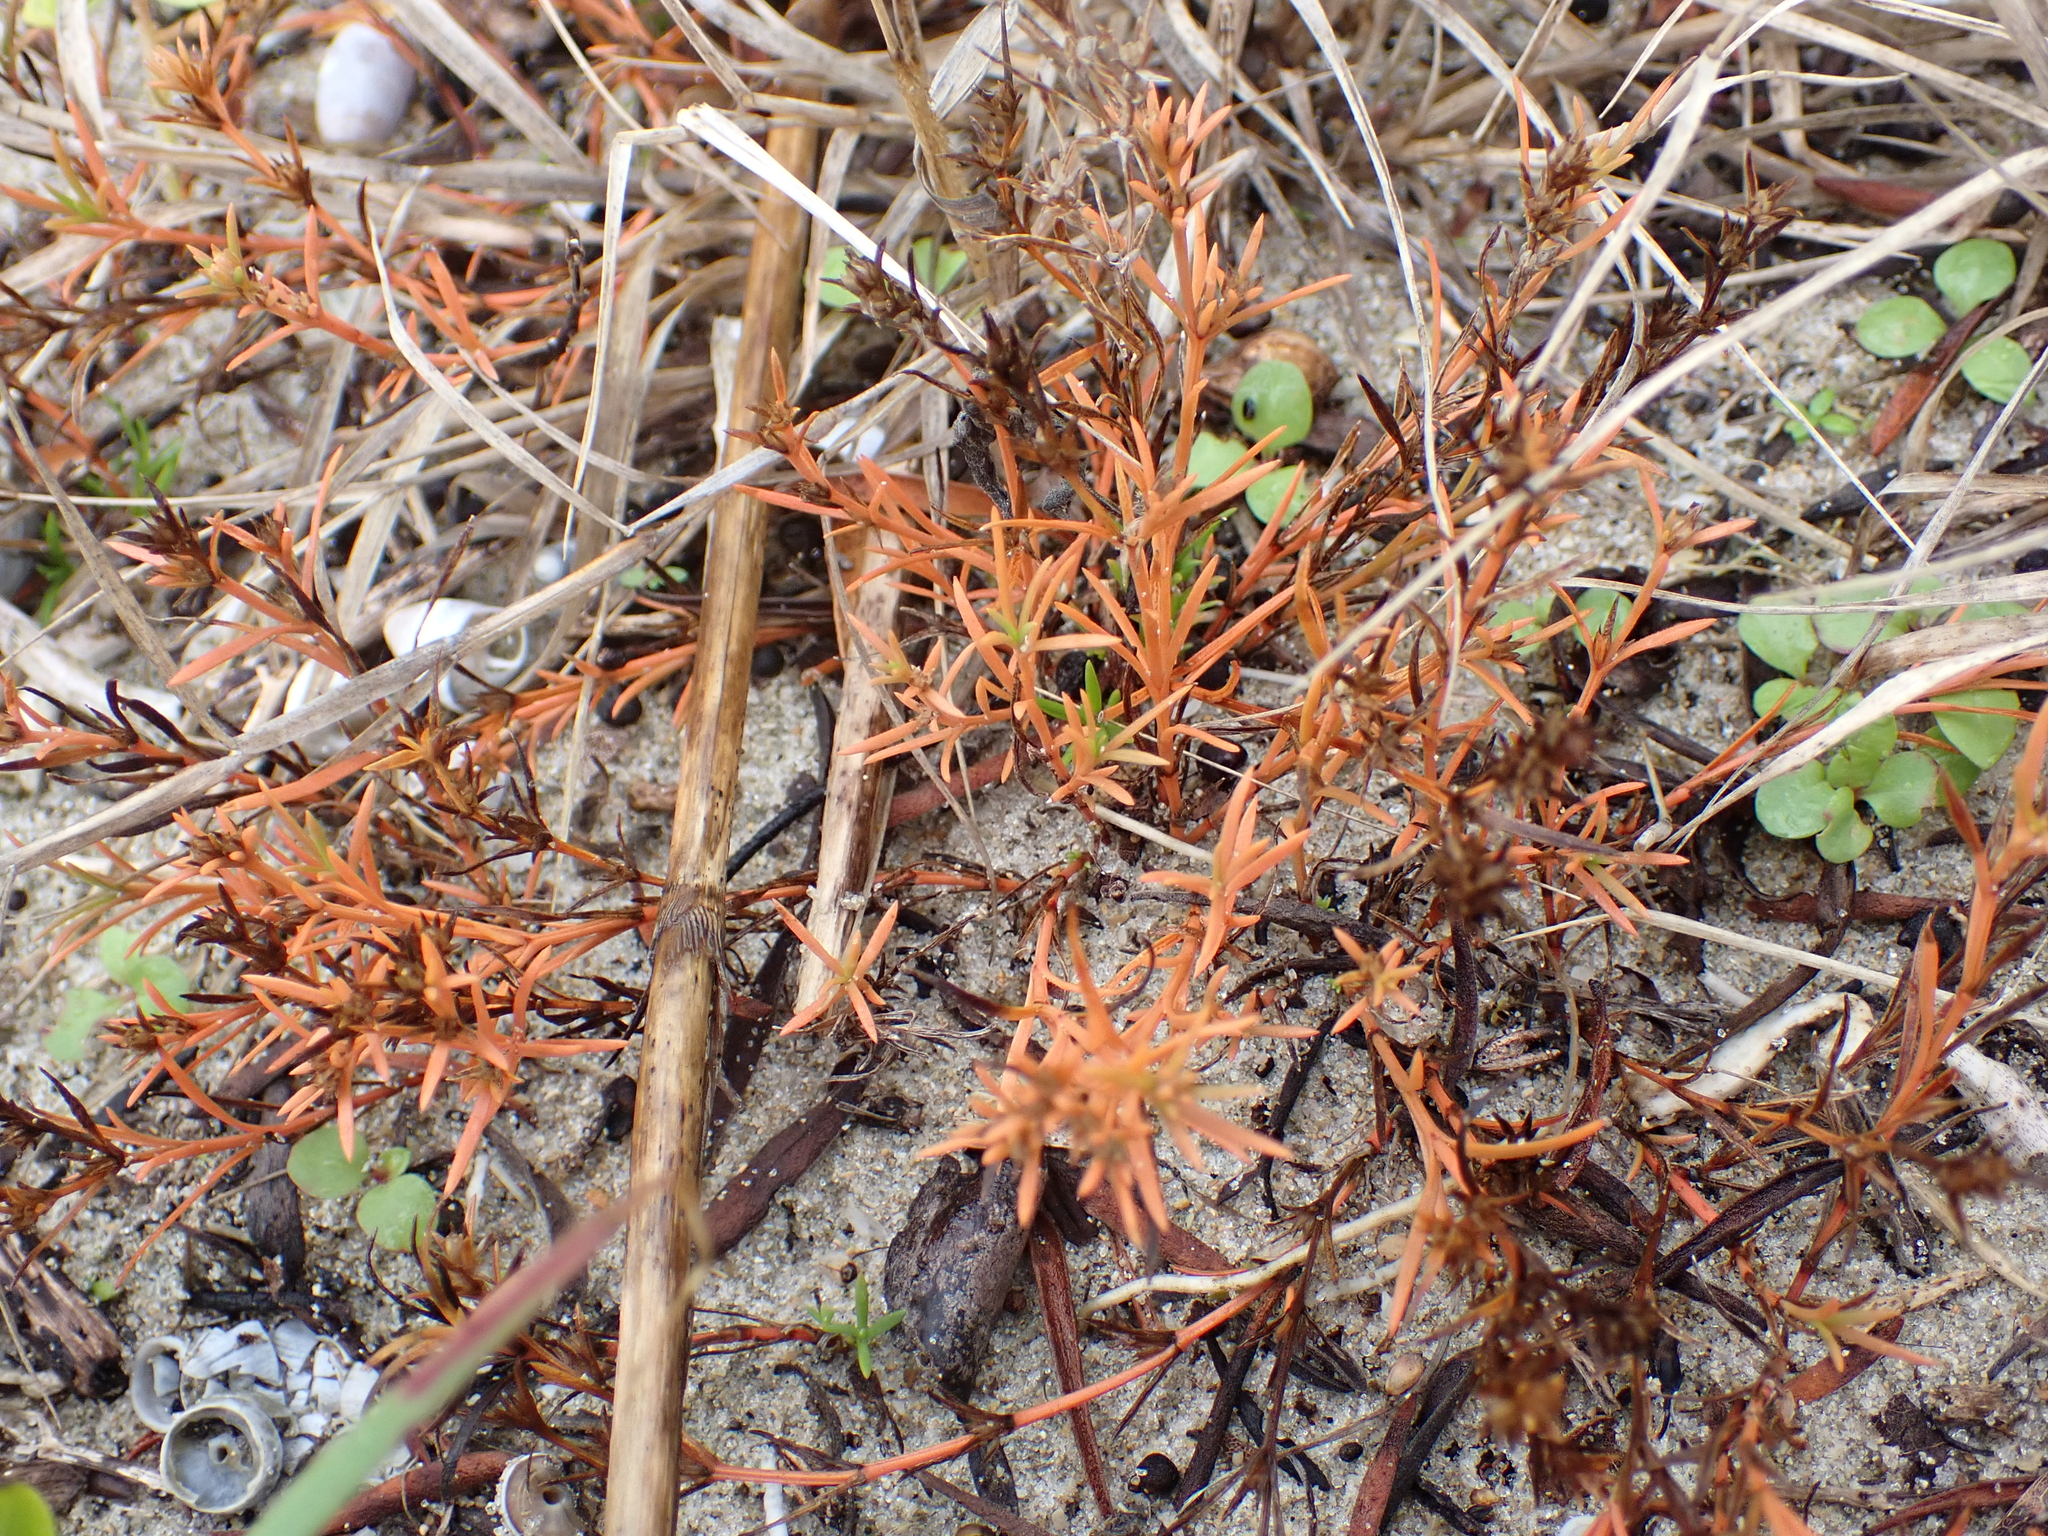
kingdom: Plantae
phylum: Tracheophyta
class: Magnoliopsida
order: Lamiales
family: Tetrachondraceae
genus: Polypremum
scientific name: Polypremum procumbens
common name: Juniper-leaf
